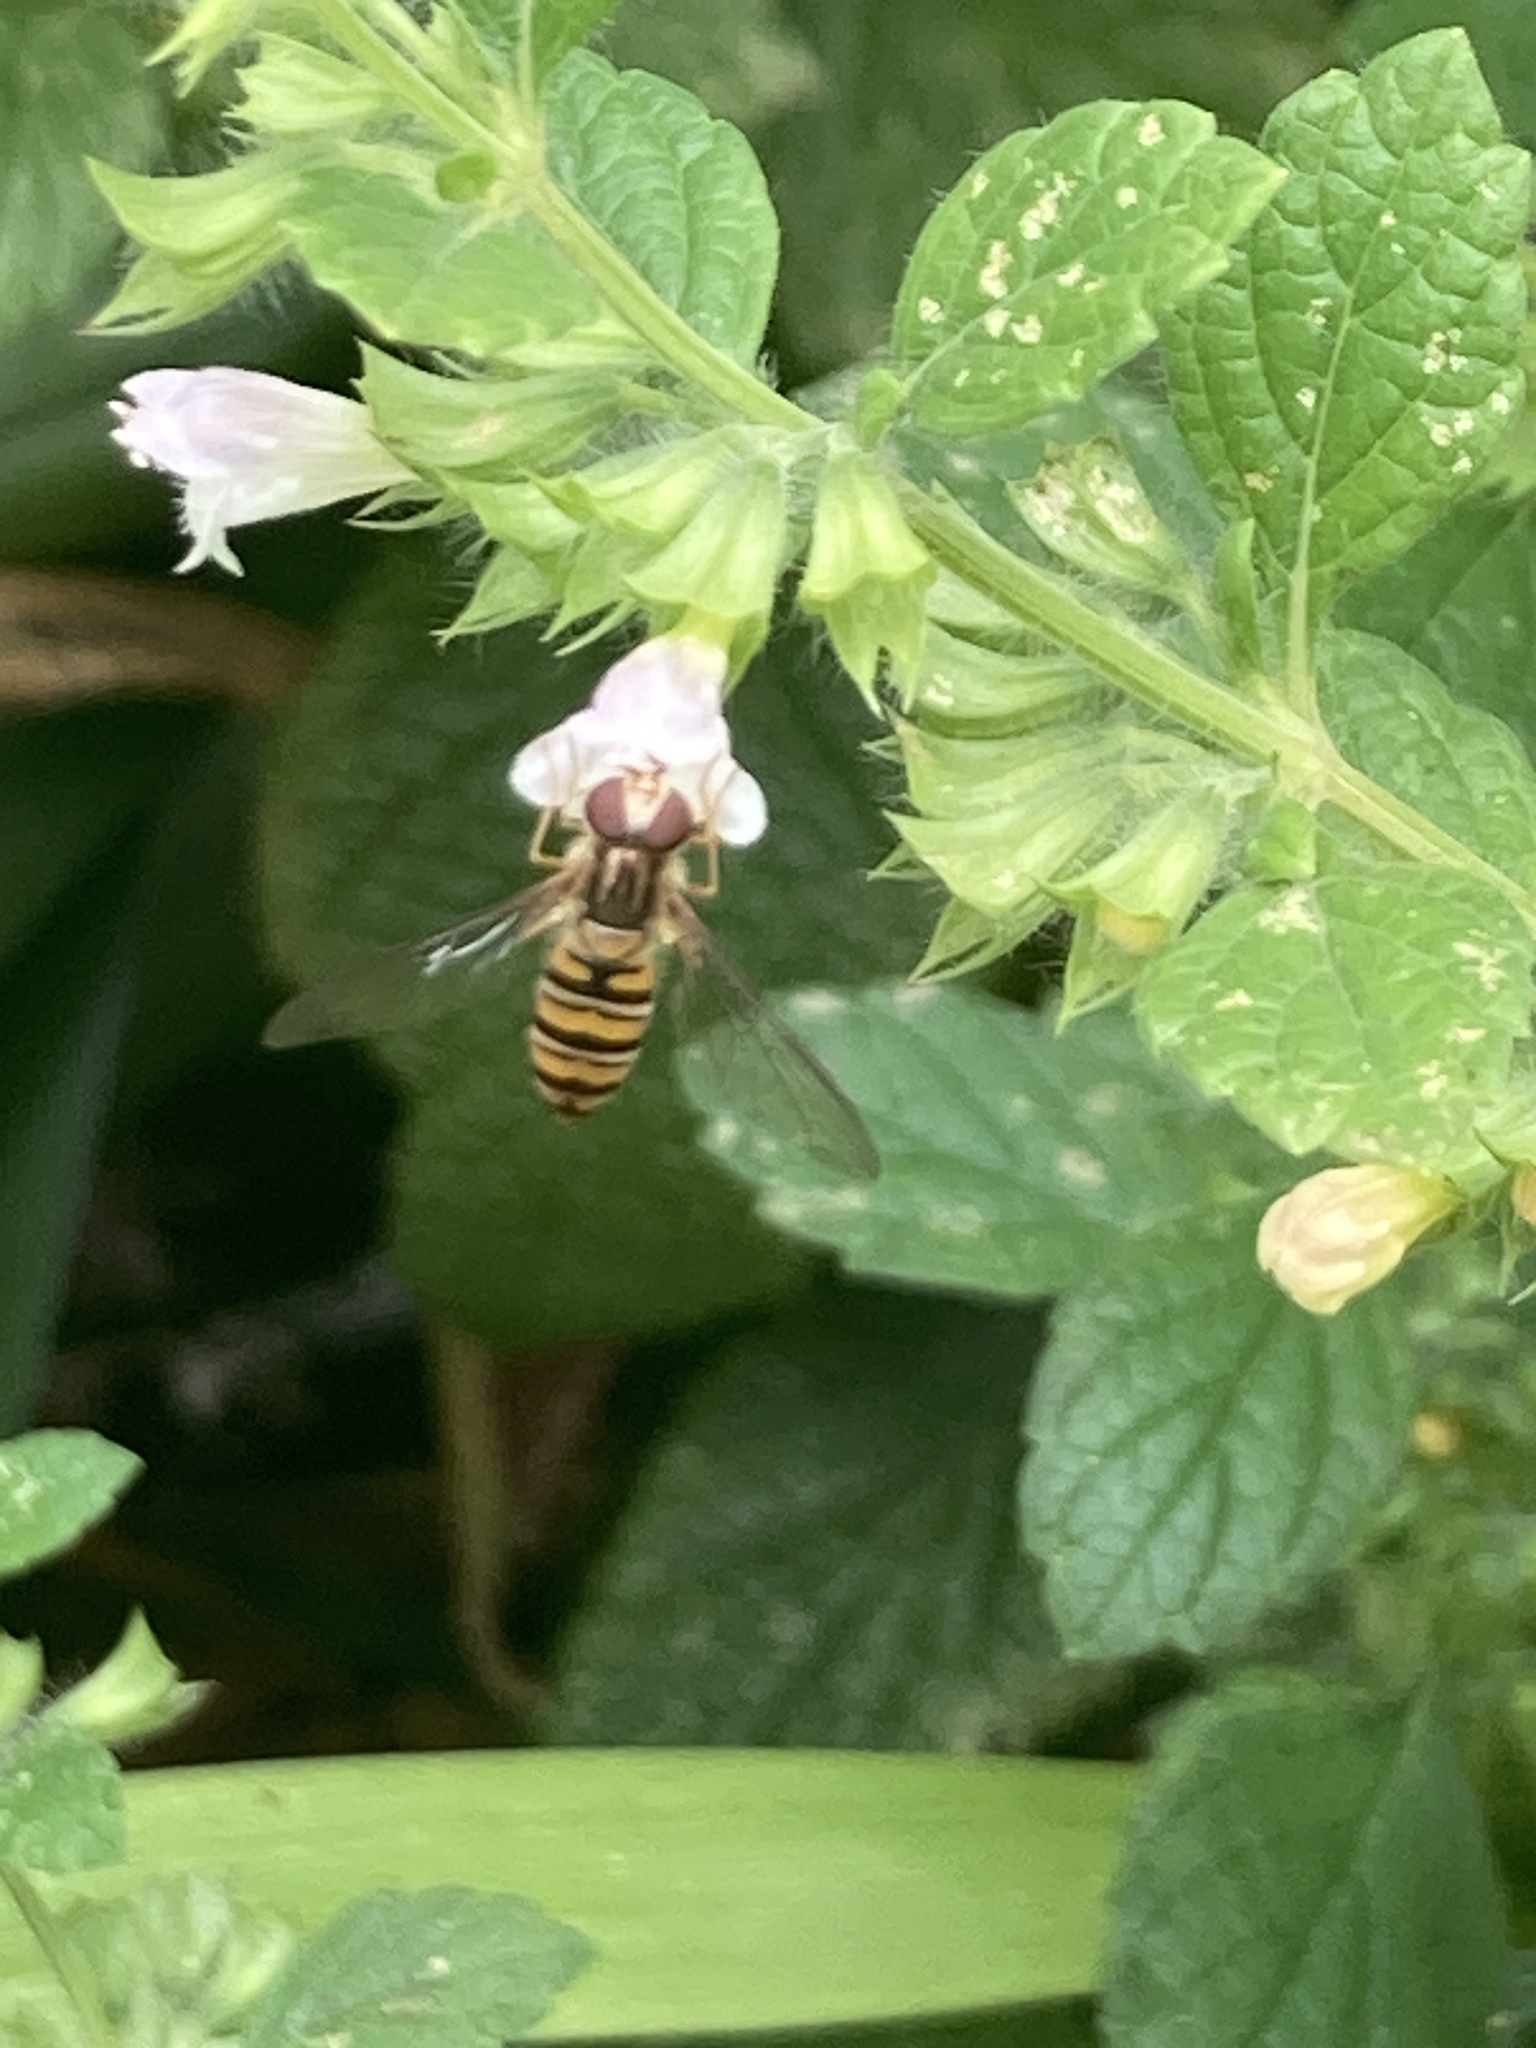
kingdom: Animalia
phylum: Arthropoda
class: Insecta
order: Diptera
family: Syrphidae
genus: Episyrphus
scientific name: Episyrphus balteatus
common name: Marmalade hoverfly
